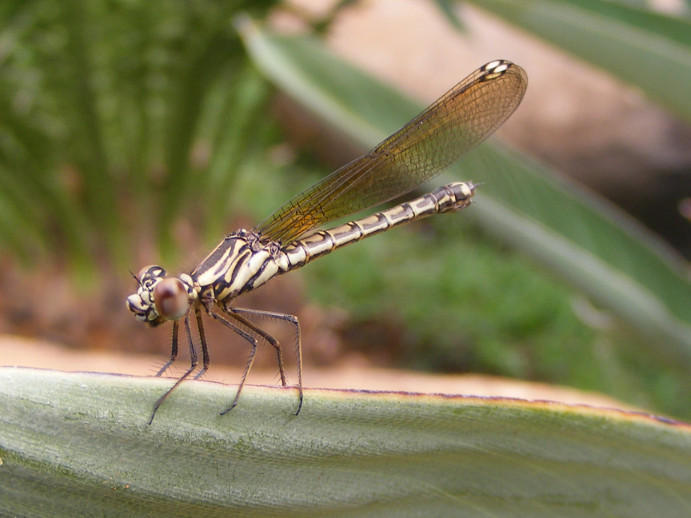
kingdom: Animalia
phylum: Arthropoda
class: Insecta
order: Odonata
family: Chlorocyphidae
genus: Platycypha
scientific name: Platycypha caligata
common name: Dancing jewel
